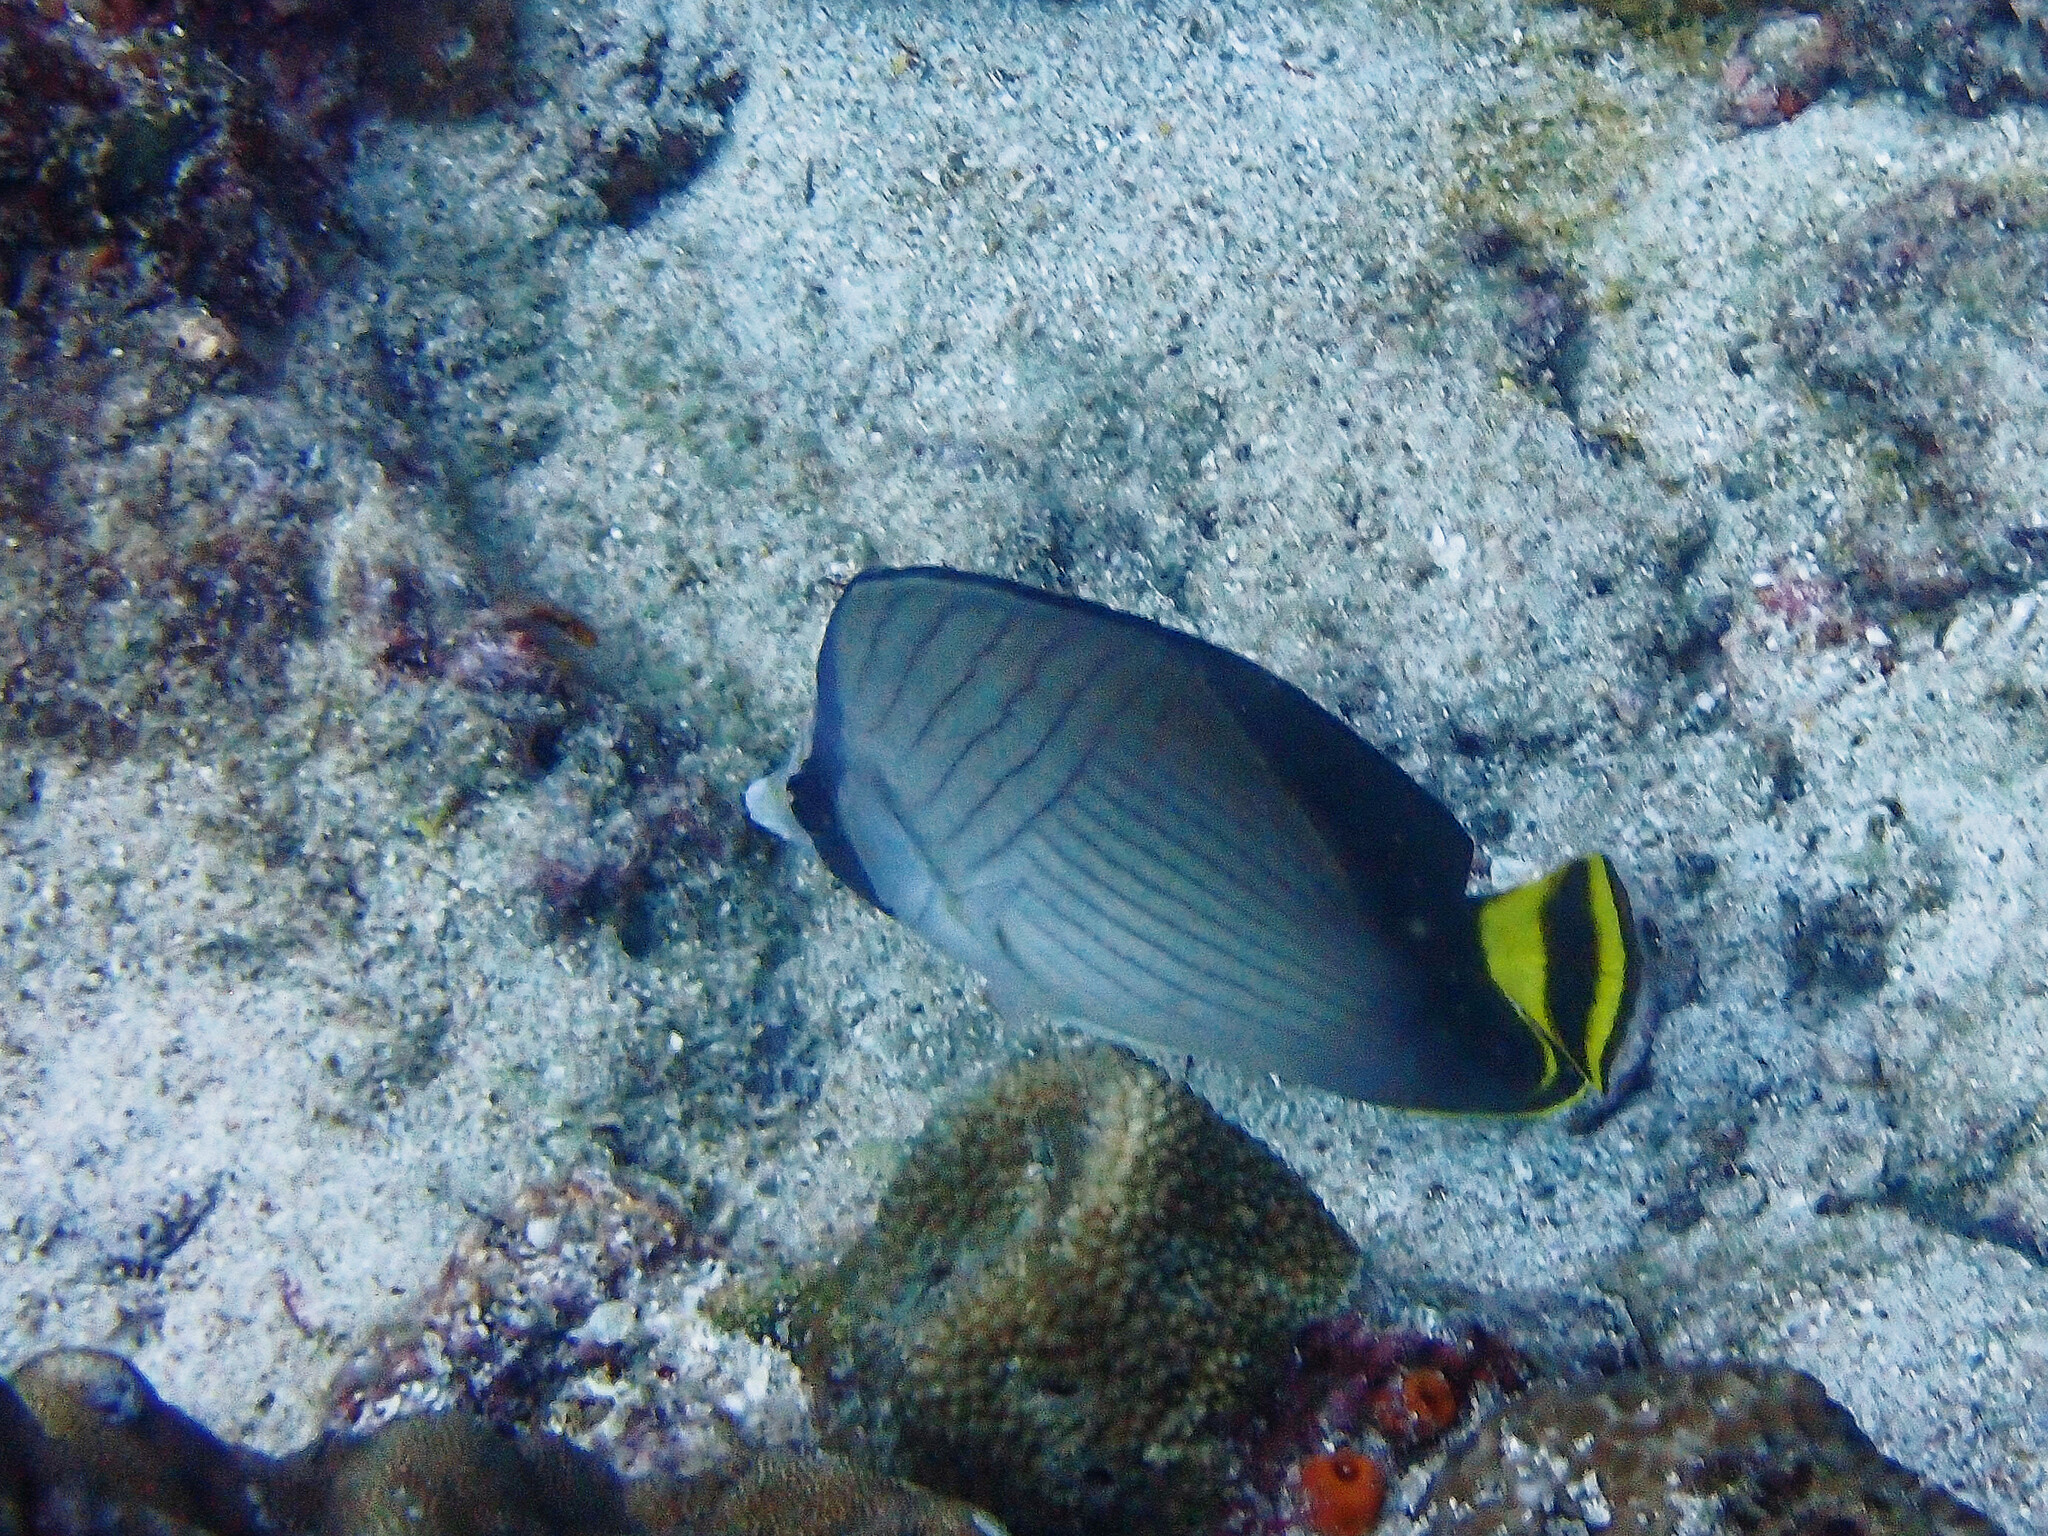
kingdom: Animalia
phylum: Chordata
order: Perciformes
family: Chaetodontidae
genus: Chaetodon
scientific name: Chaetodon decussatus
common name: Indian vagabond butterflyfish
